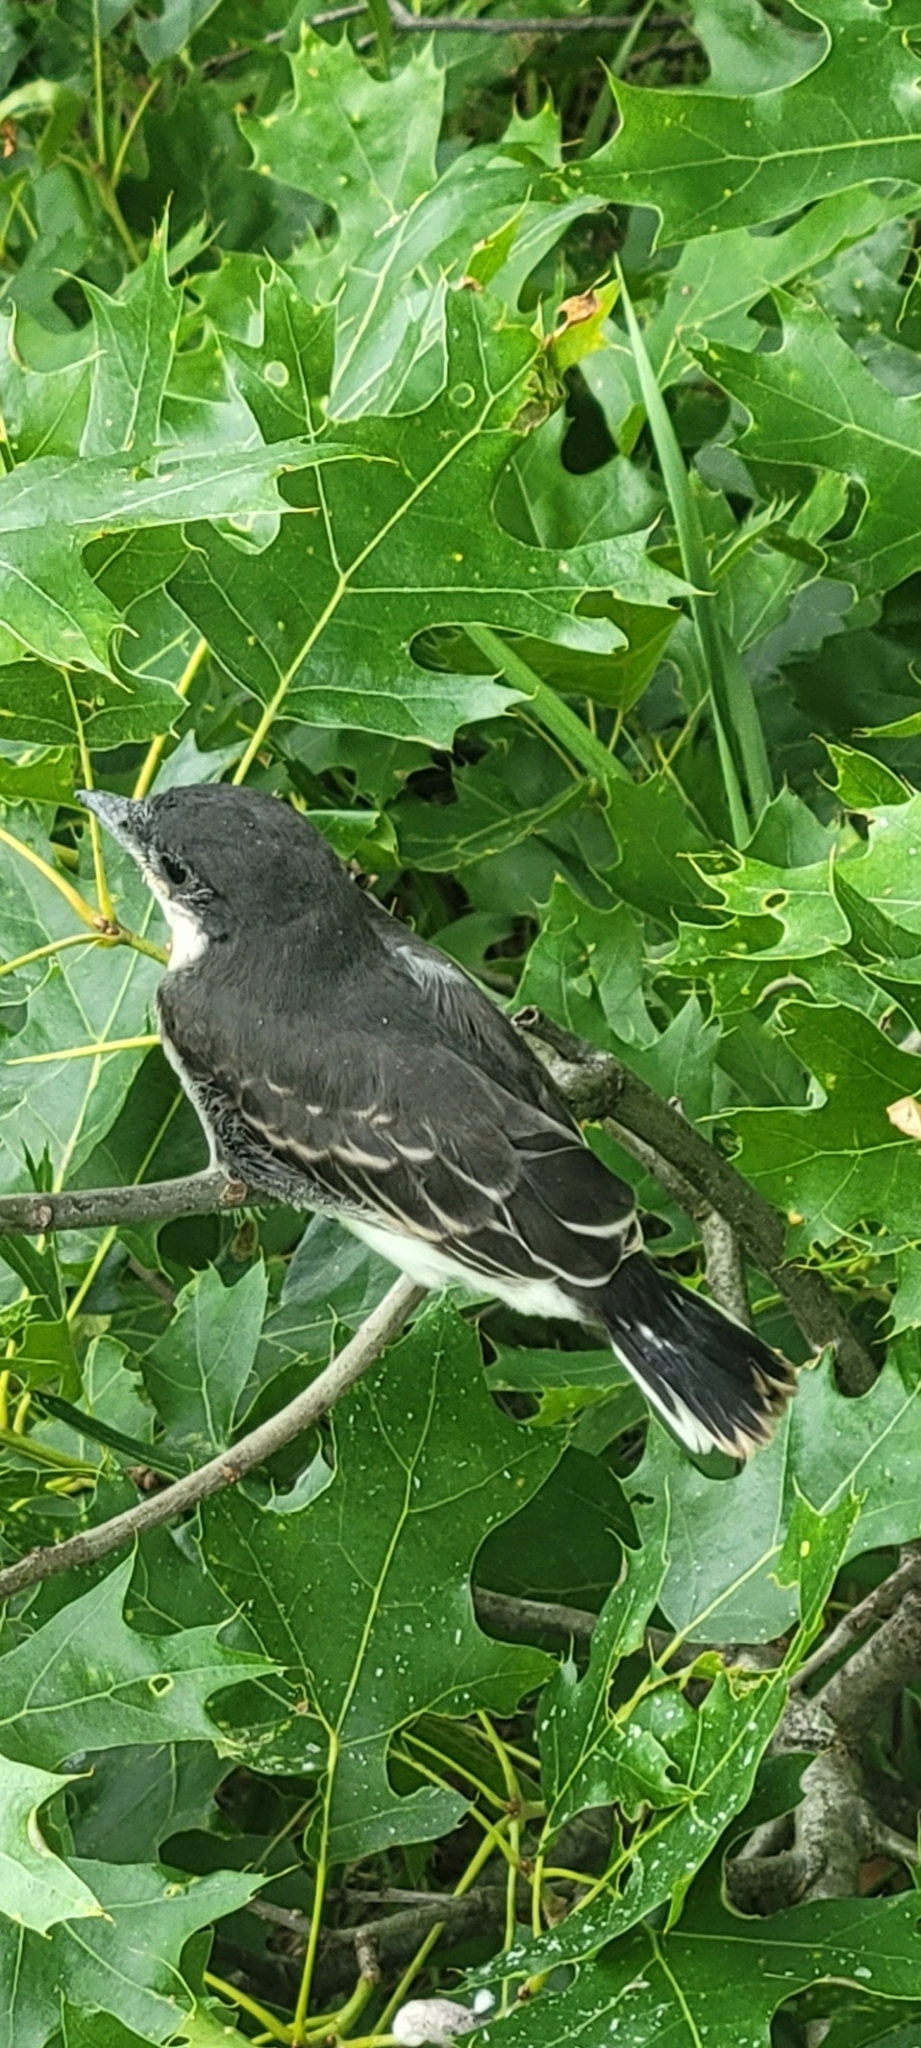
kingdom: Animalia
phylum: Chordata
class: Aves
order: Passeriformes
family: Tyrannidae
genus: Tyrannus
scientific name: Tyrannus tyrannus
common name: Eastern kingbird
